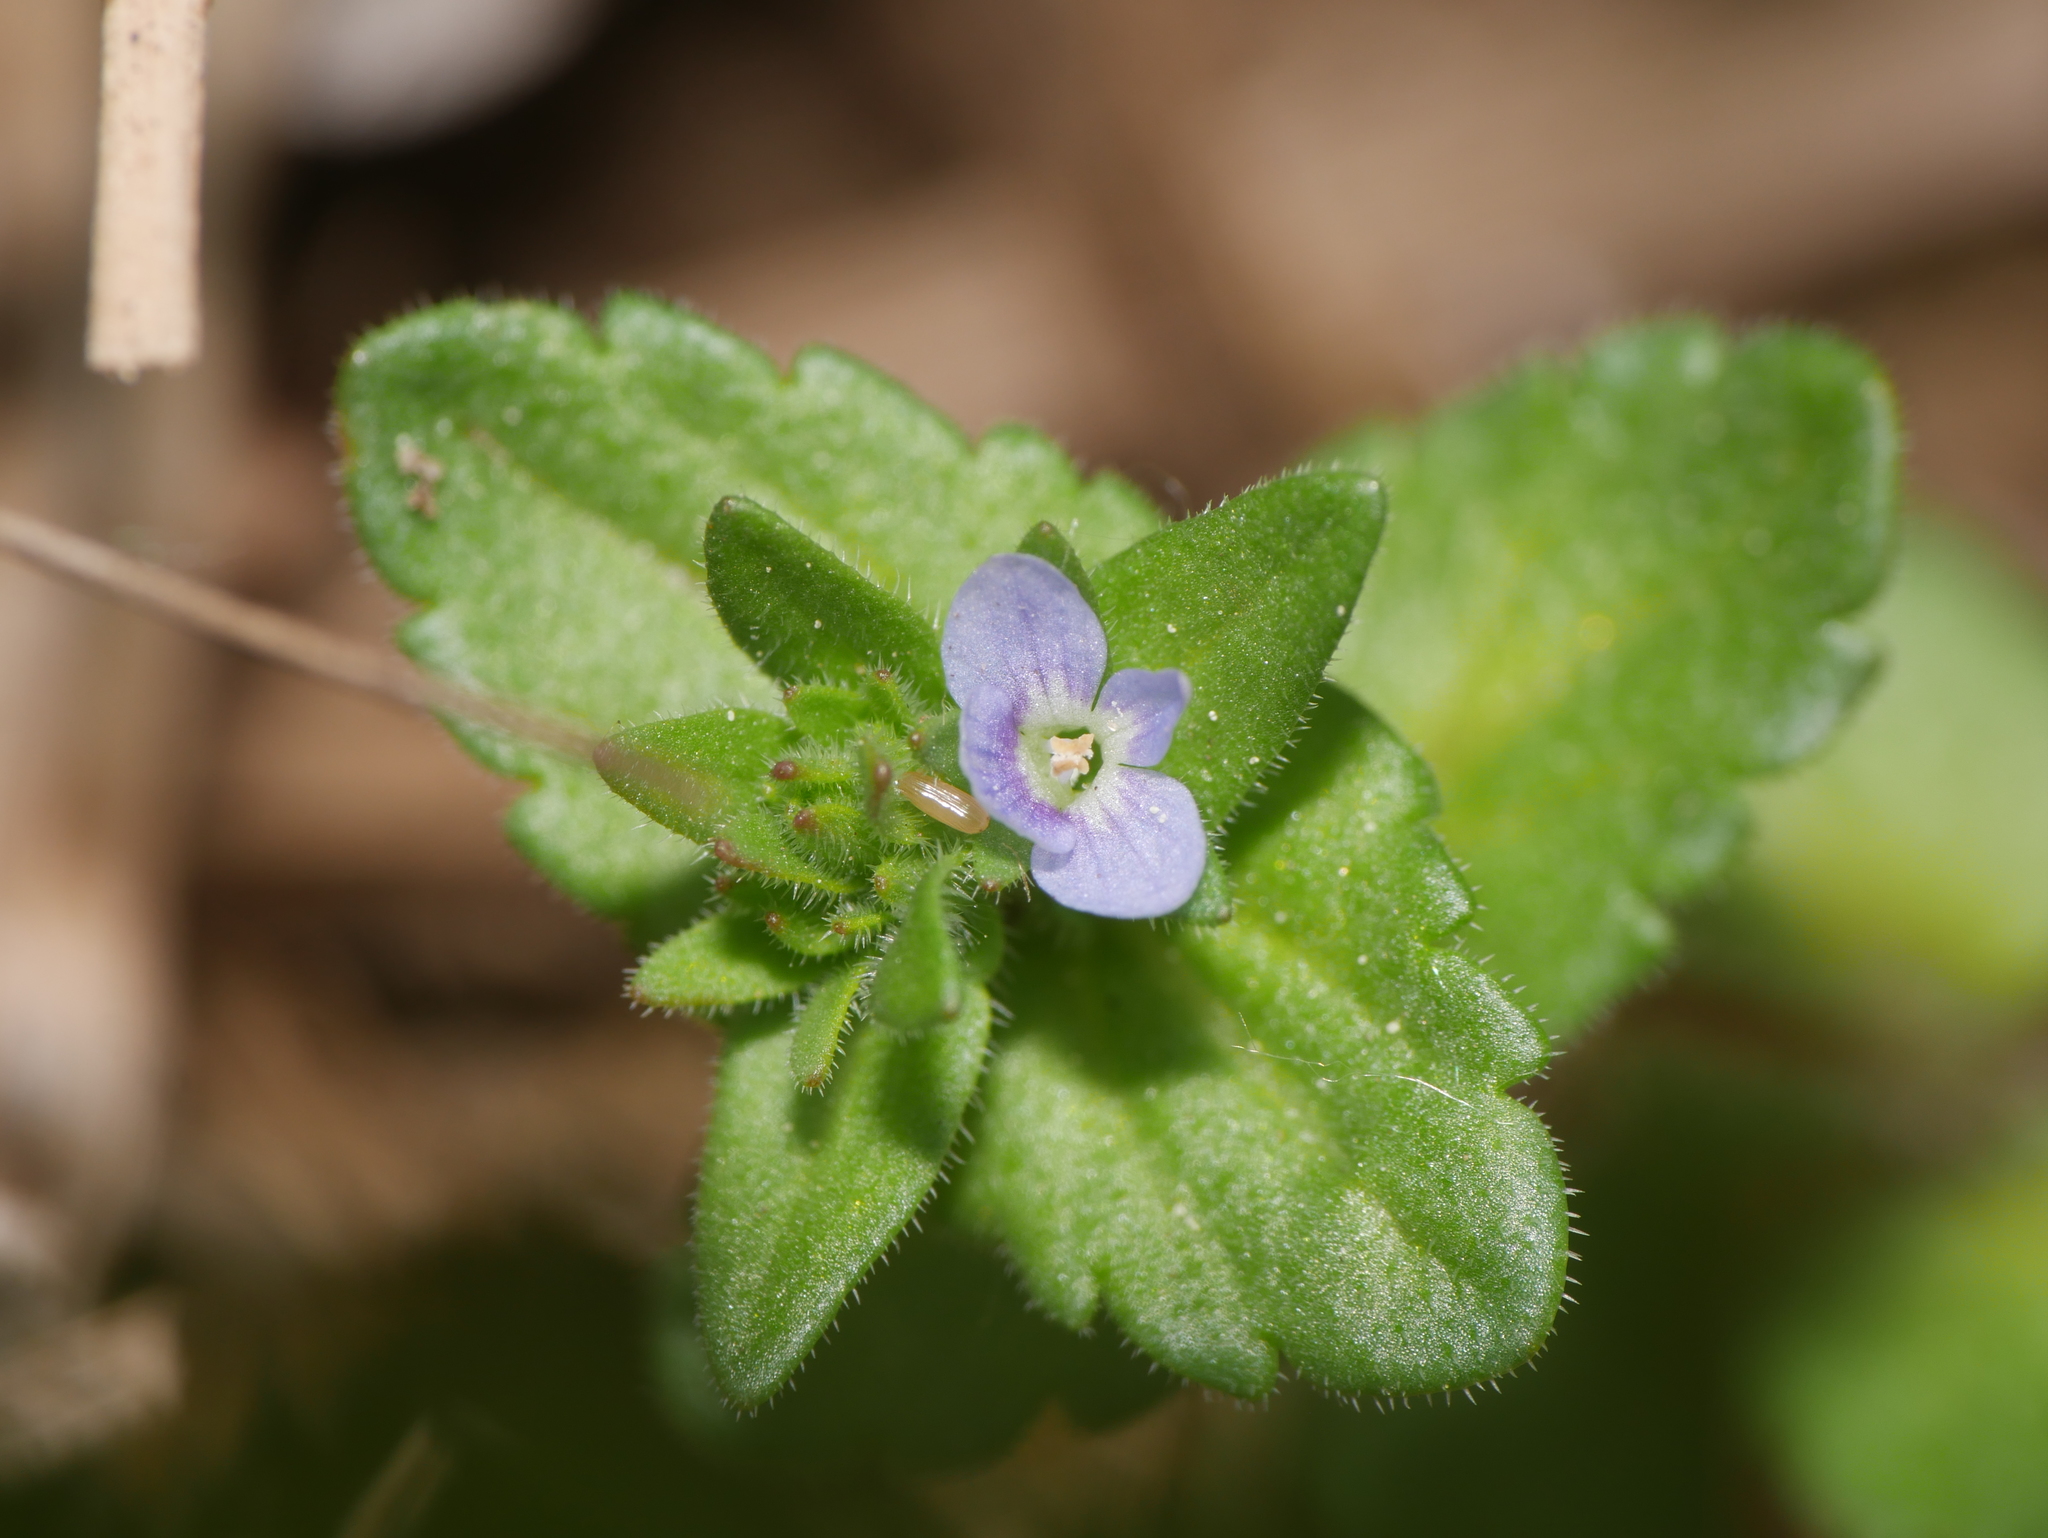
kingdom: Plantae
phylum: Tracheophyta
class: Magnoliopsida
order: Lamiales
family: Plantaginaceae
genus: Veronica
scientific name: Veronica arvensis
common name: Corn speedwell
